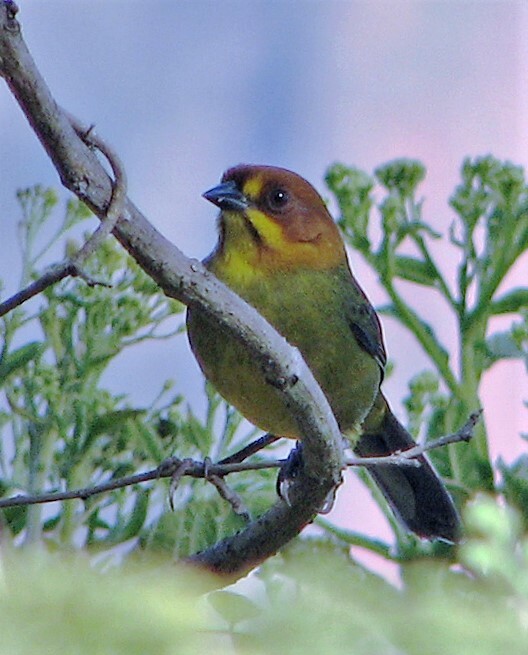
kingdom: Animalia
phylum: Chordata
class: Aves
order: Passeriformes
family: Passerellidae
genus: Atlapetes
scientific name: Atlapetes fulviceps
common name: Fulvous-headed brushfinch
